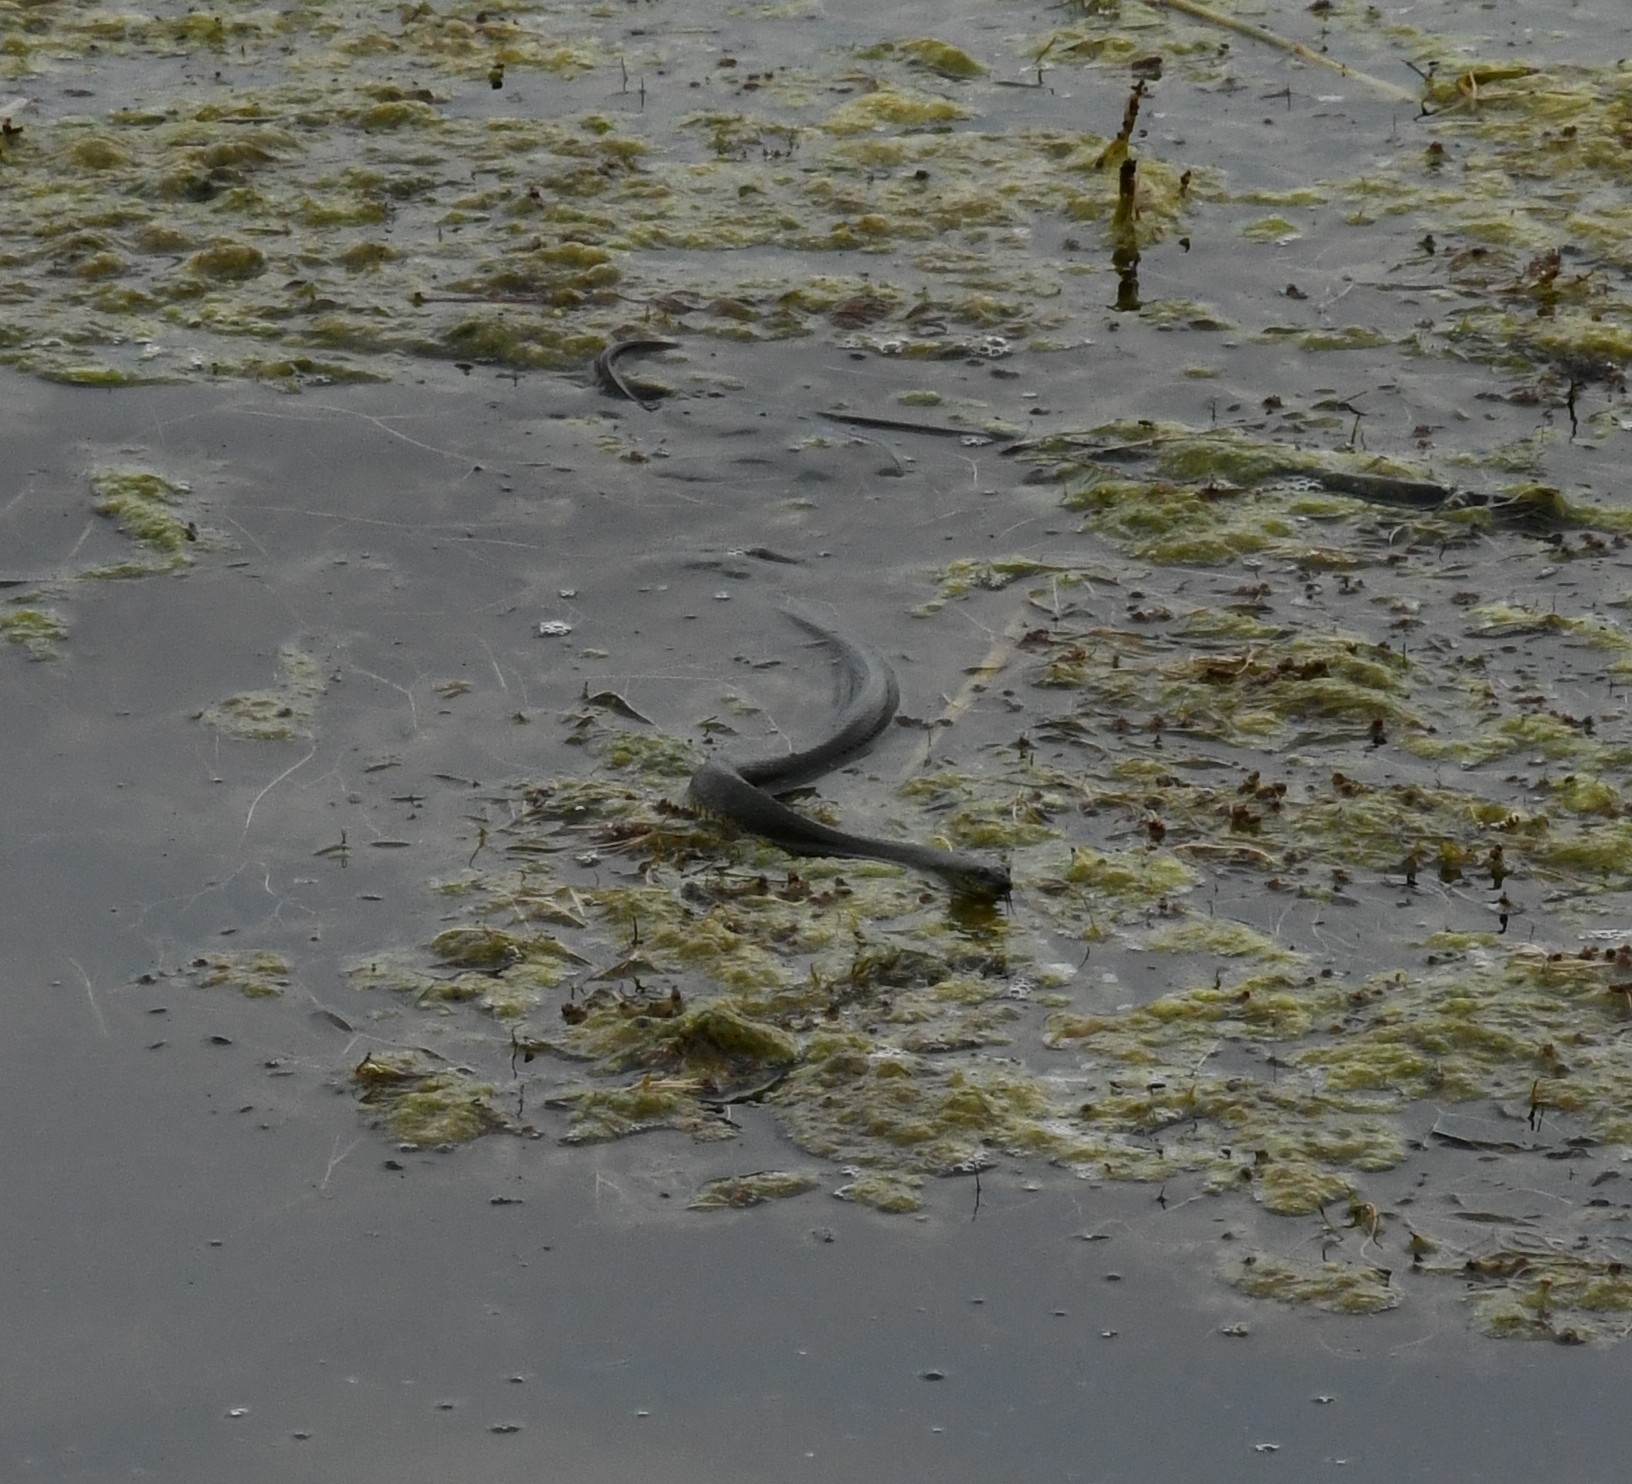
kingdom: Animalia
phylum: Chordata
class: Squamata
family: Colubridae
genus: Natrix
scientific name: Natrix tessellata
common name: Dice snake
